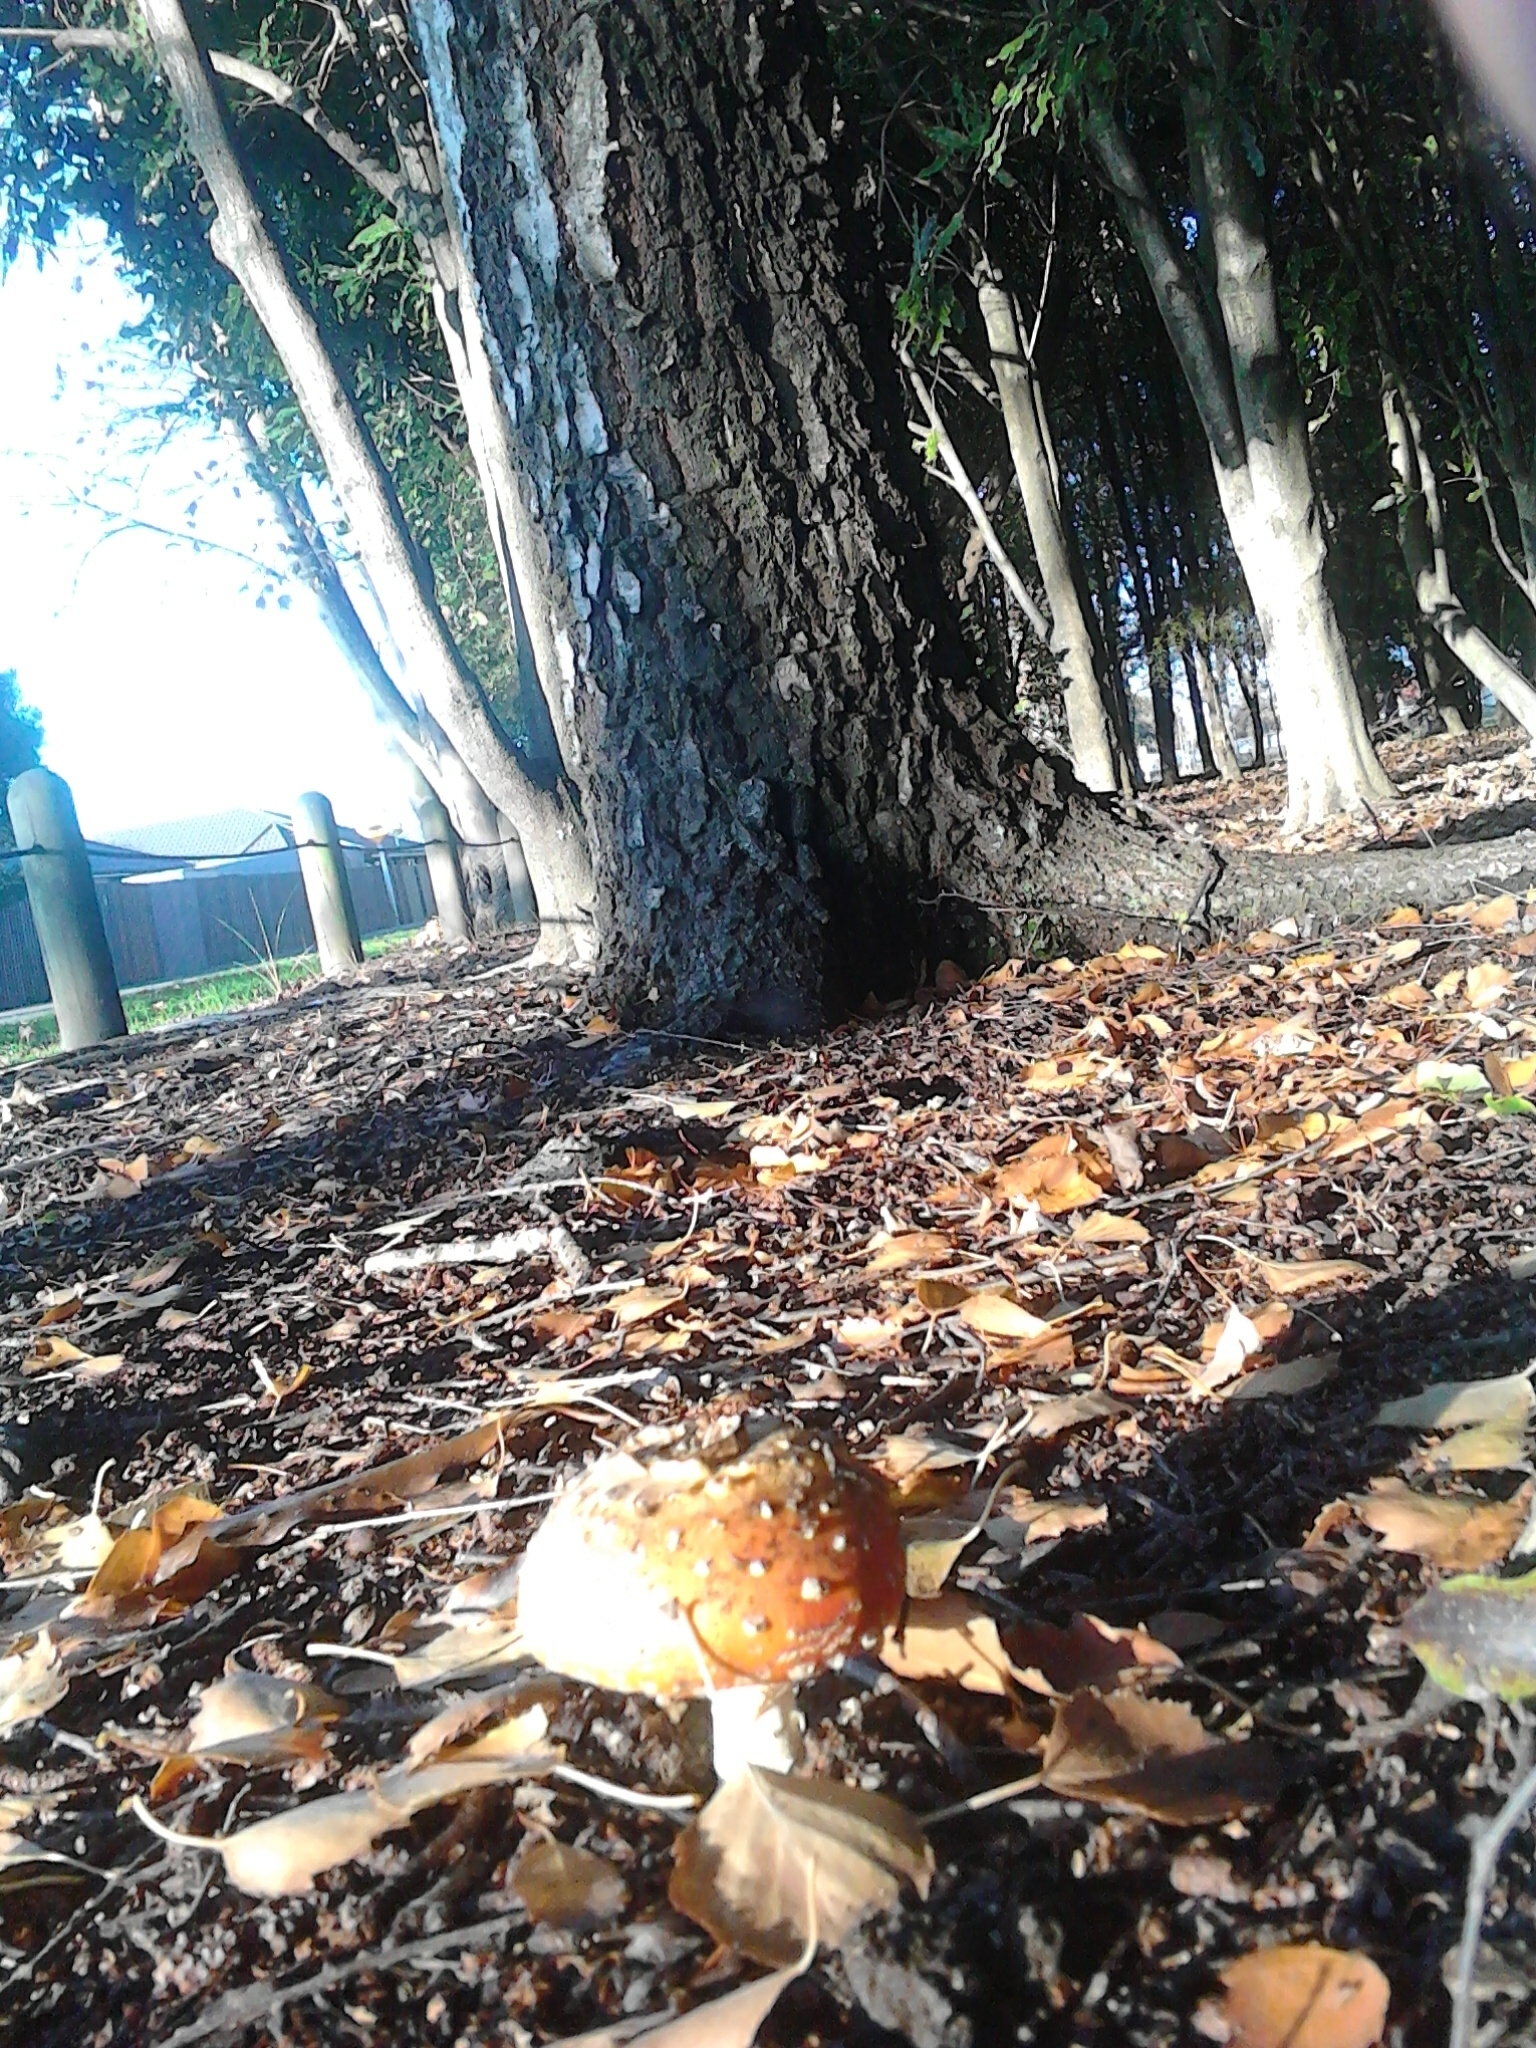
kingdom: Fungi
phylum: Basidiomycota
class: Agaricomycetes
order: Agaricales
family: Amanitaceae
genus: Amanita
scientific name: Amanita muscaria
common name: Fly agaric
